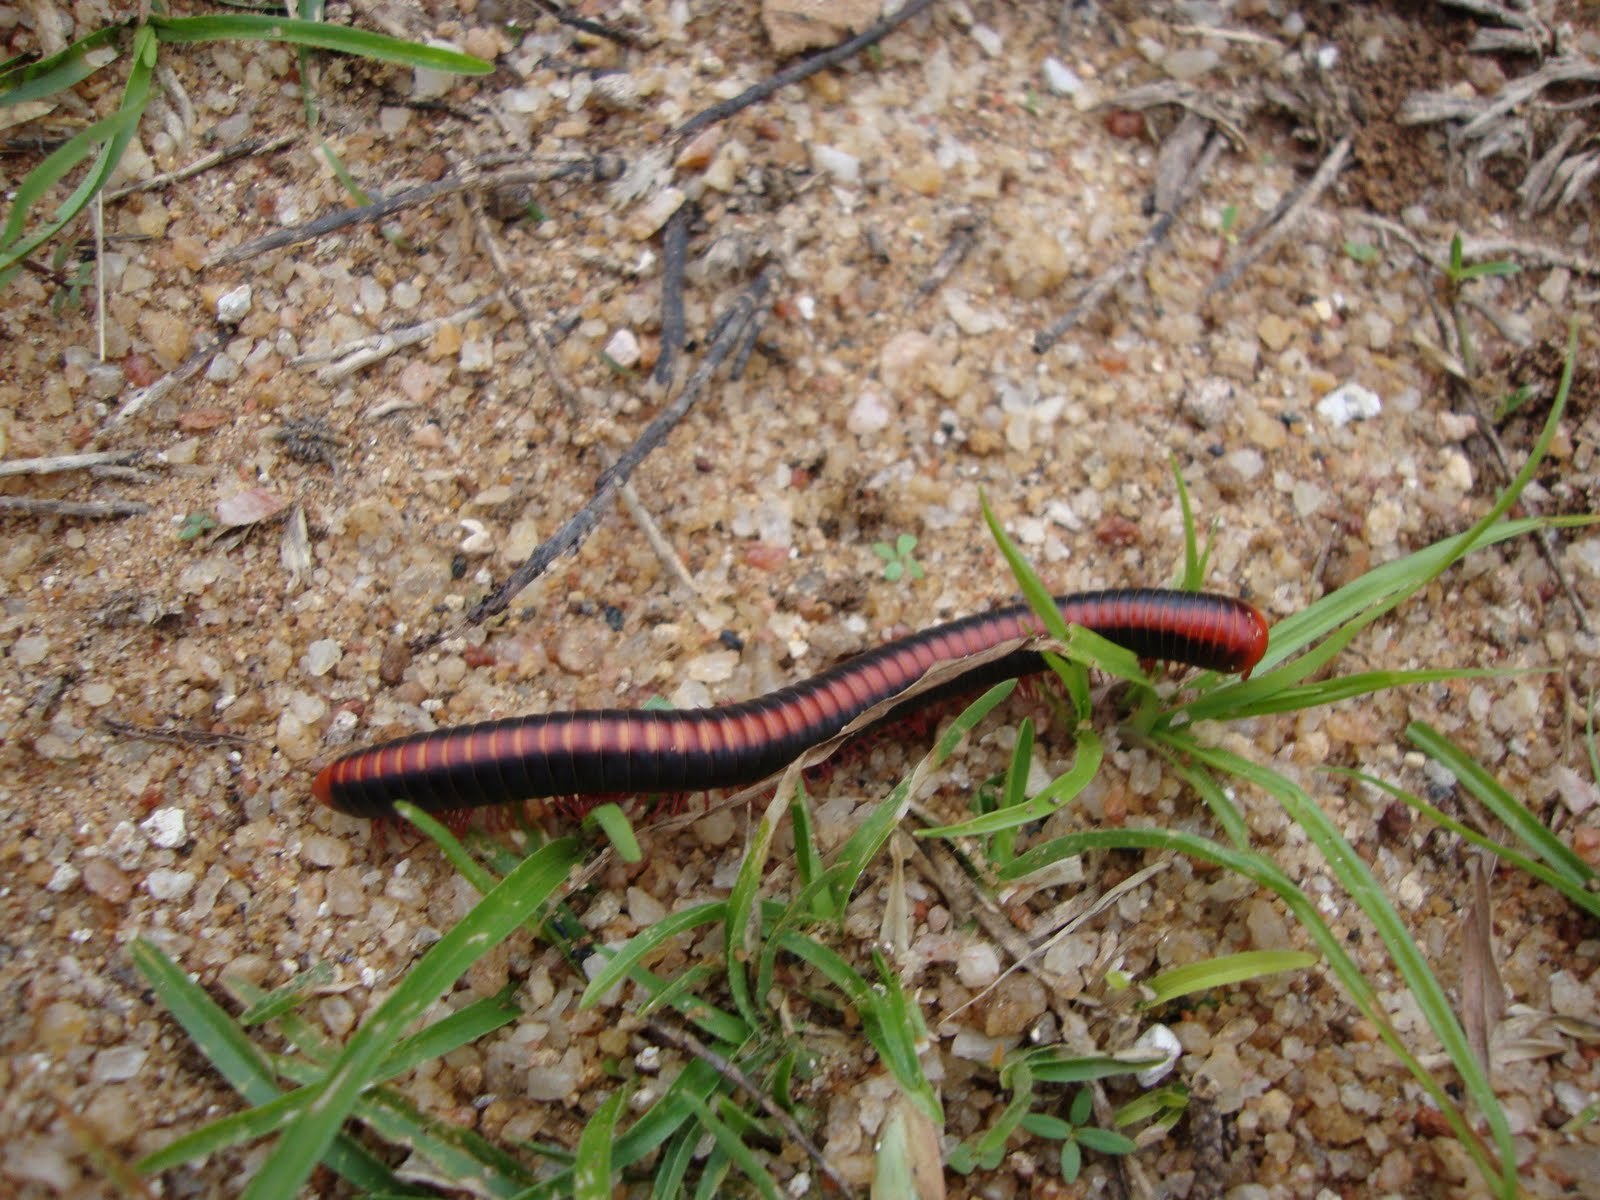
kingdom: Animalia
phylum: Arthropoda
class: Diplopoda
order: Spirobolida
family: Pachybolidae
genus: Xenobolus
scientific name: Xenobolus carnifex
